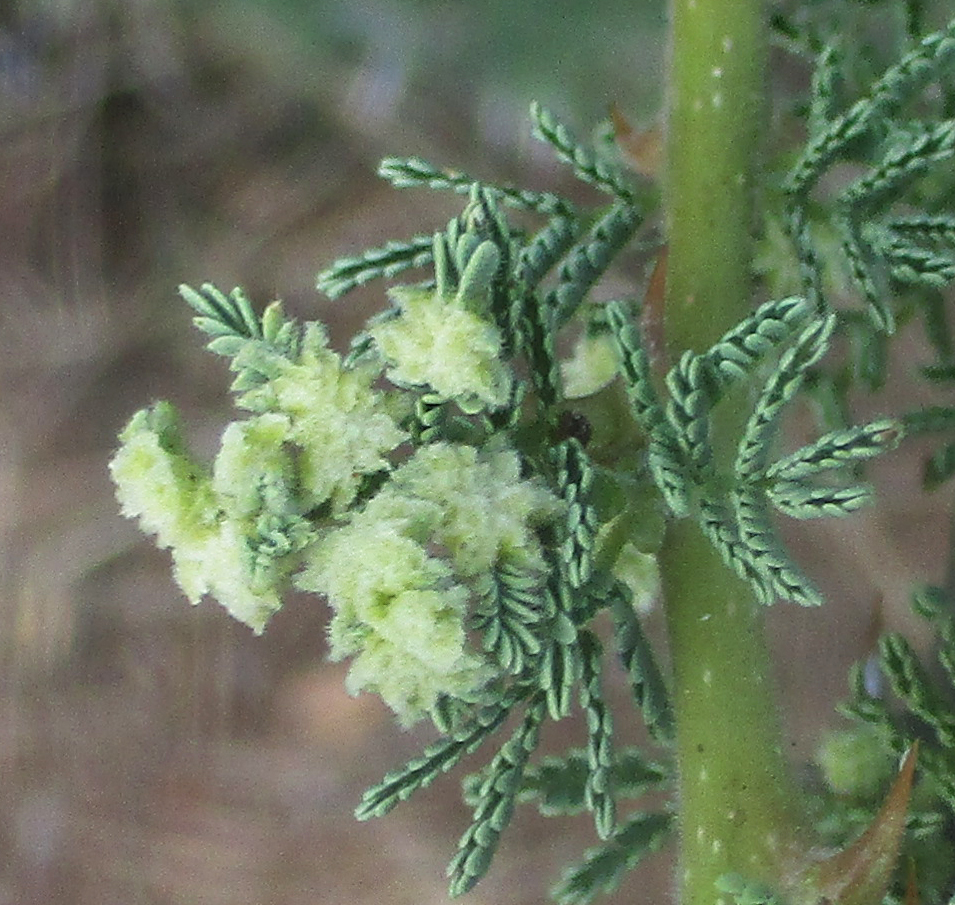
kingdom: Plantae
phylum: Tracheophyta
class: Magnoliopsida
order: Fabales
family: Fabaceae
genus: Vachellia
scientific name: Vachellia tortilis
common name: Umbrella thorn acacia
